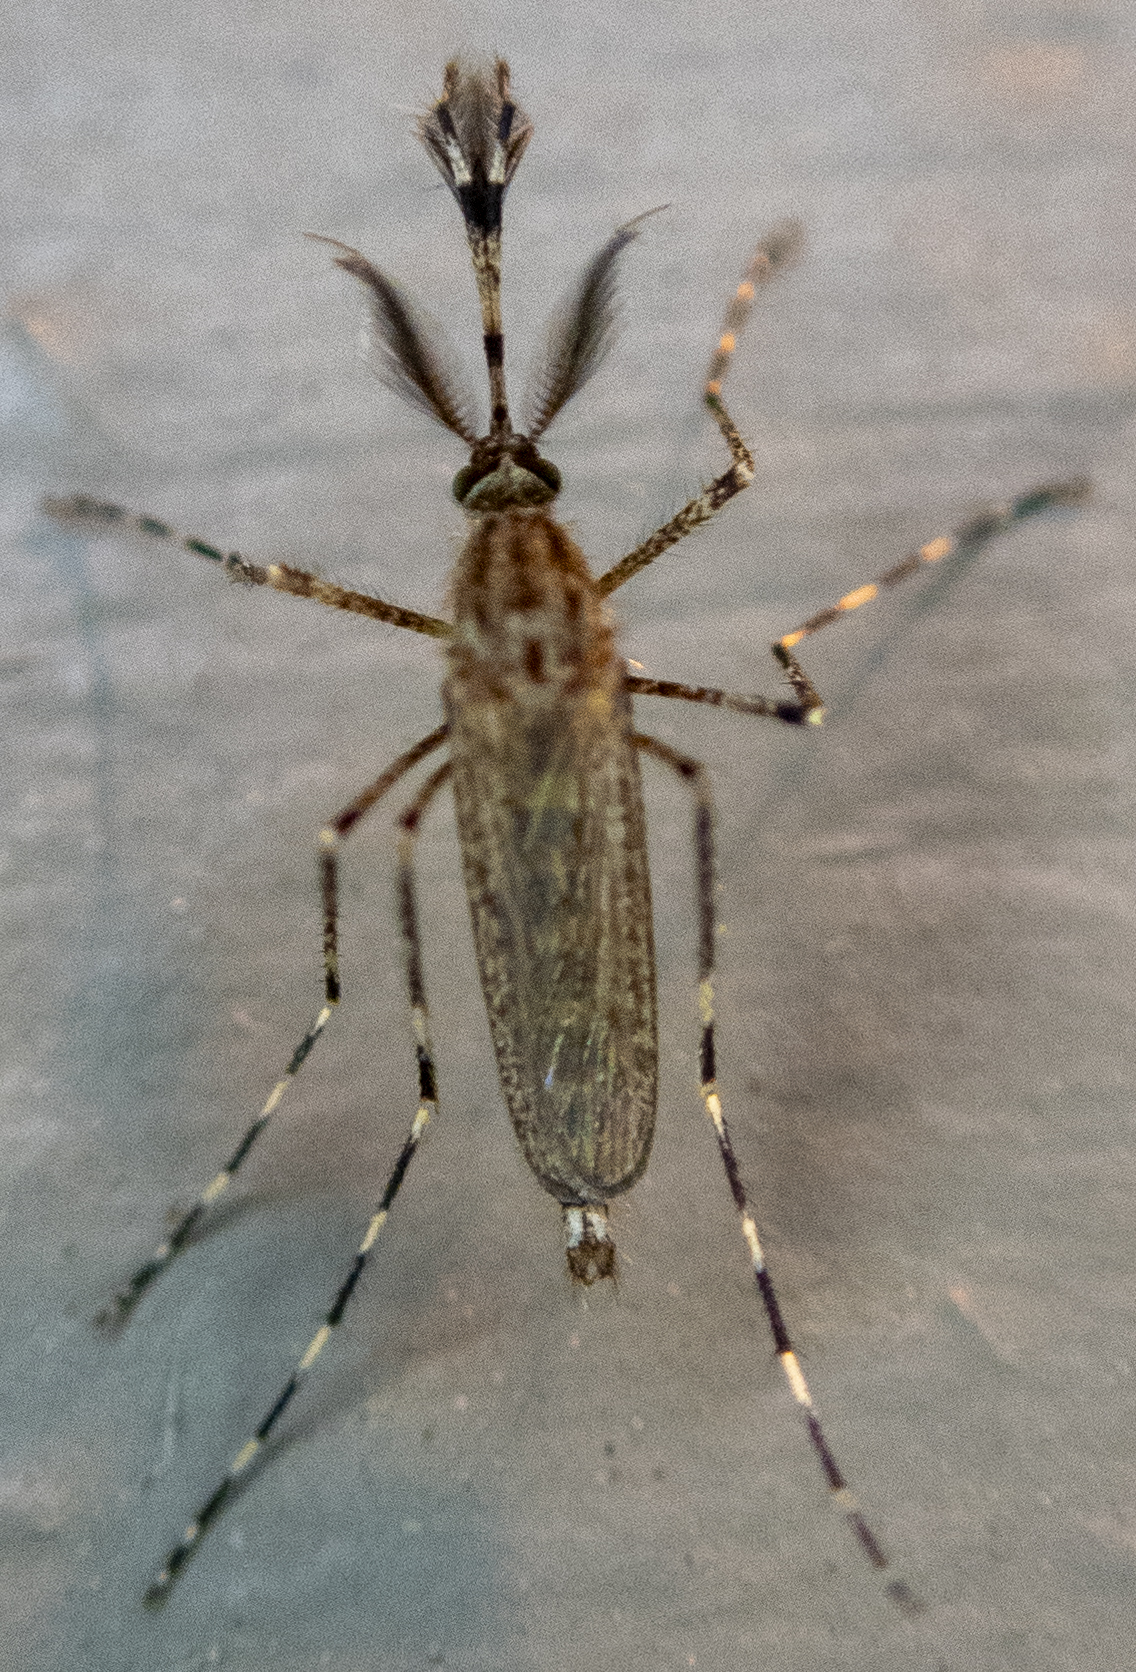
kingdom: Animalia
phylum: Arthropoda
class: Insecta
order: Diptera
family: Culicidae
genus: Coquillettidia
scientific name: Coquillettidia perturbans
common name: Cattail mosquito
